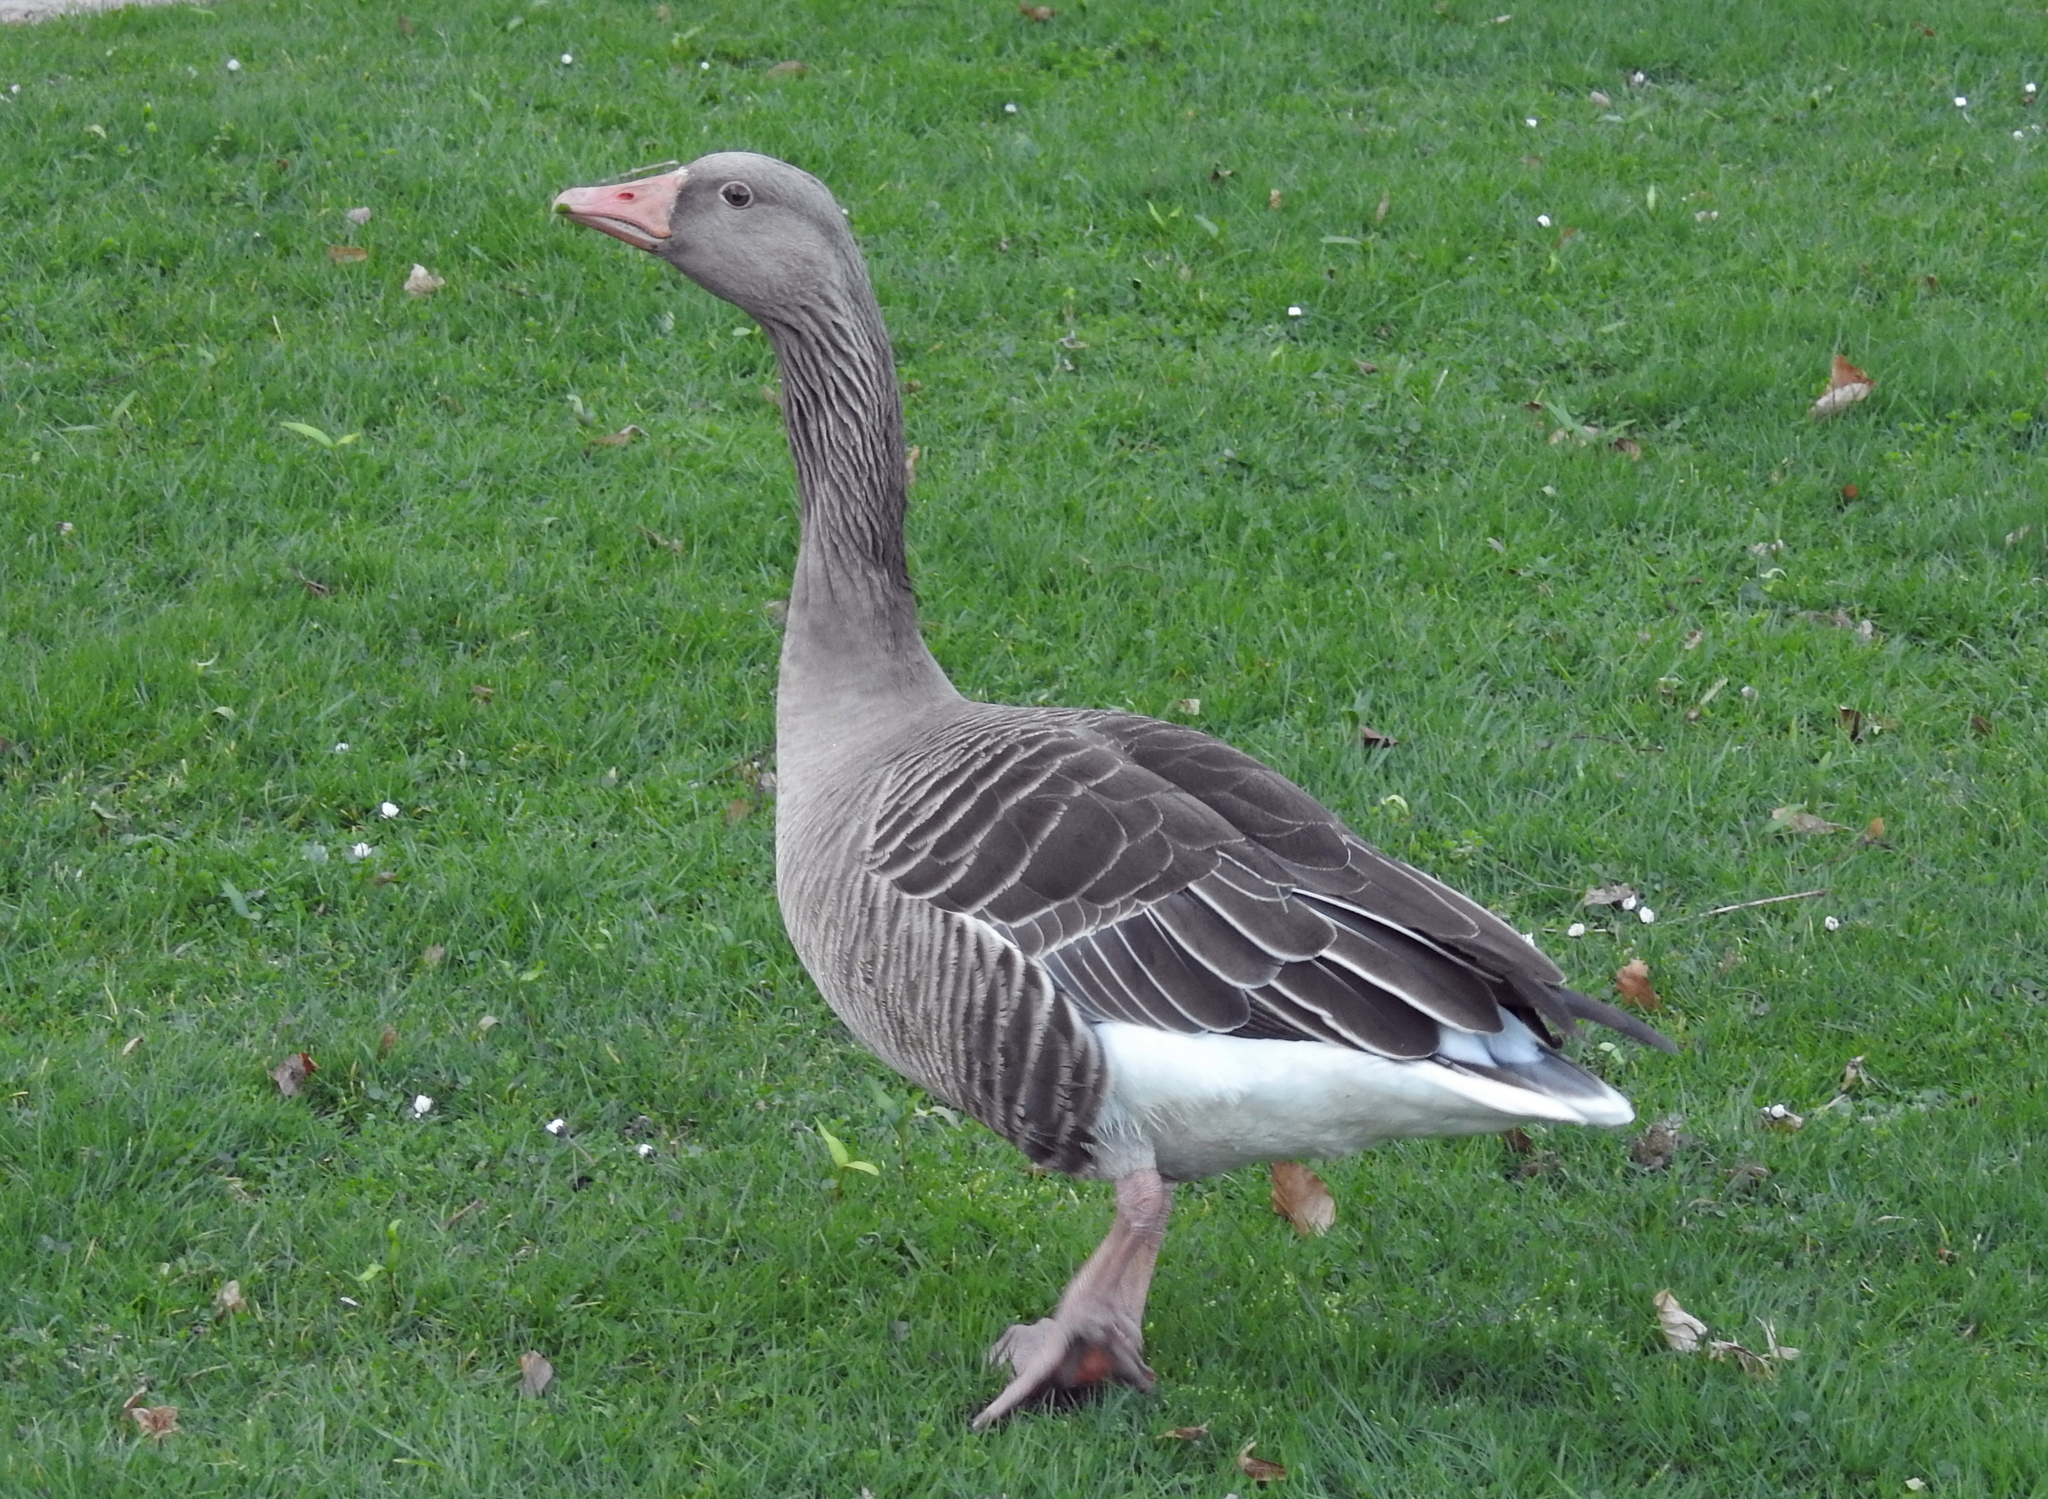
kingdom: Animalia
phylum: Chordata
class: Aves
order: Anseriformes
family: Anatidae
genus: Anser
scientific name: Anser anser
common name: Greylag goose
